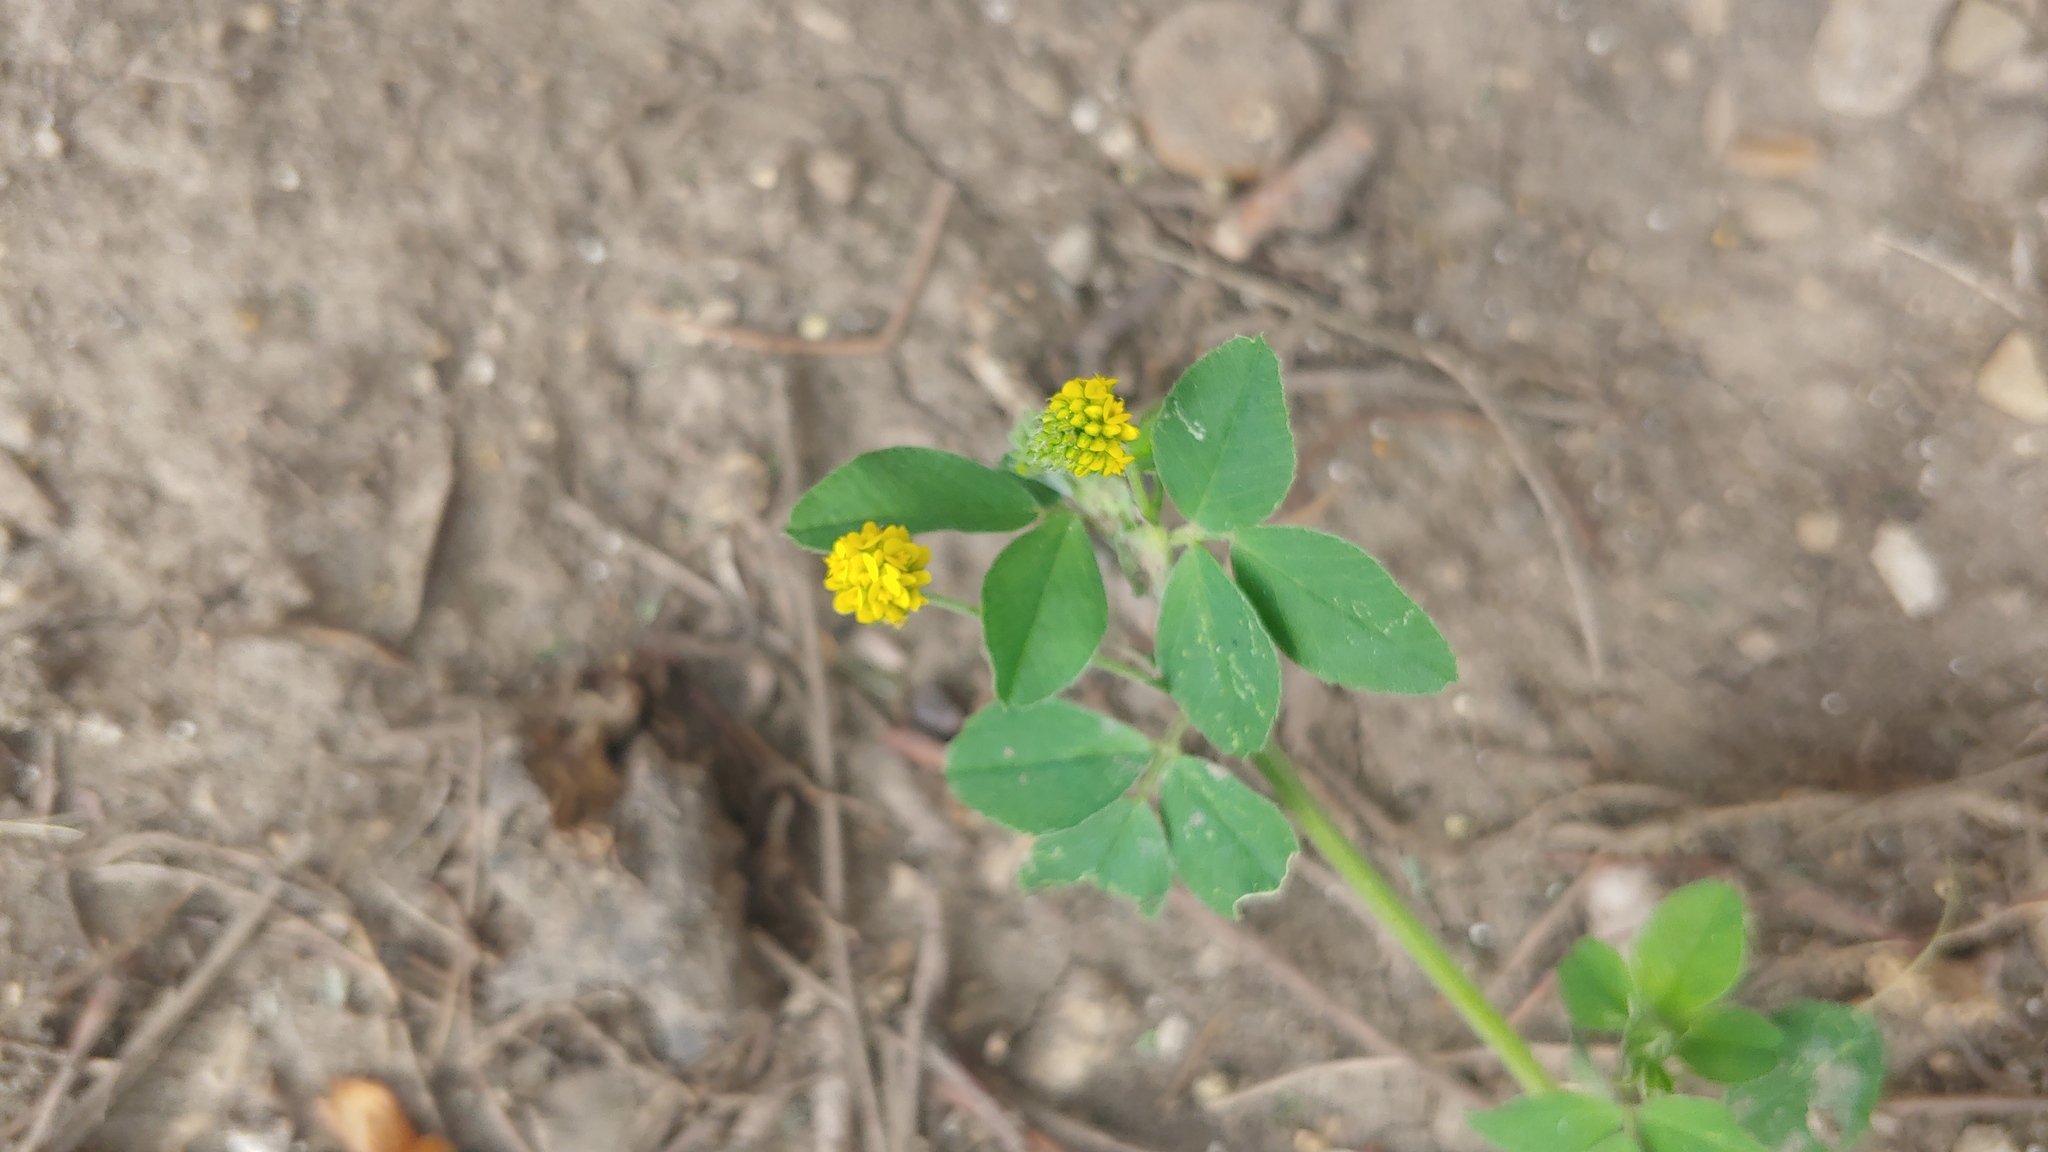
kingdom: Plantae
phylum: Tracheophyta
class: Magnoliopsida
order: Fabales
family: Fabaceae
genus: Medicago
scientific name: Medicago lupulina
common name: Black medick
